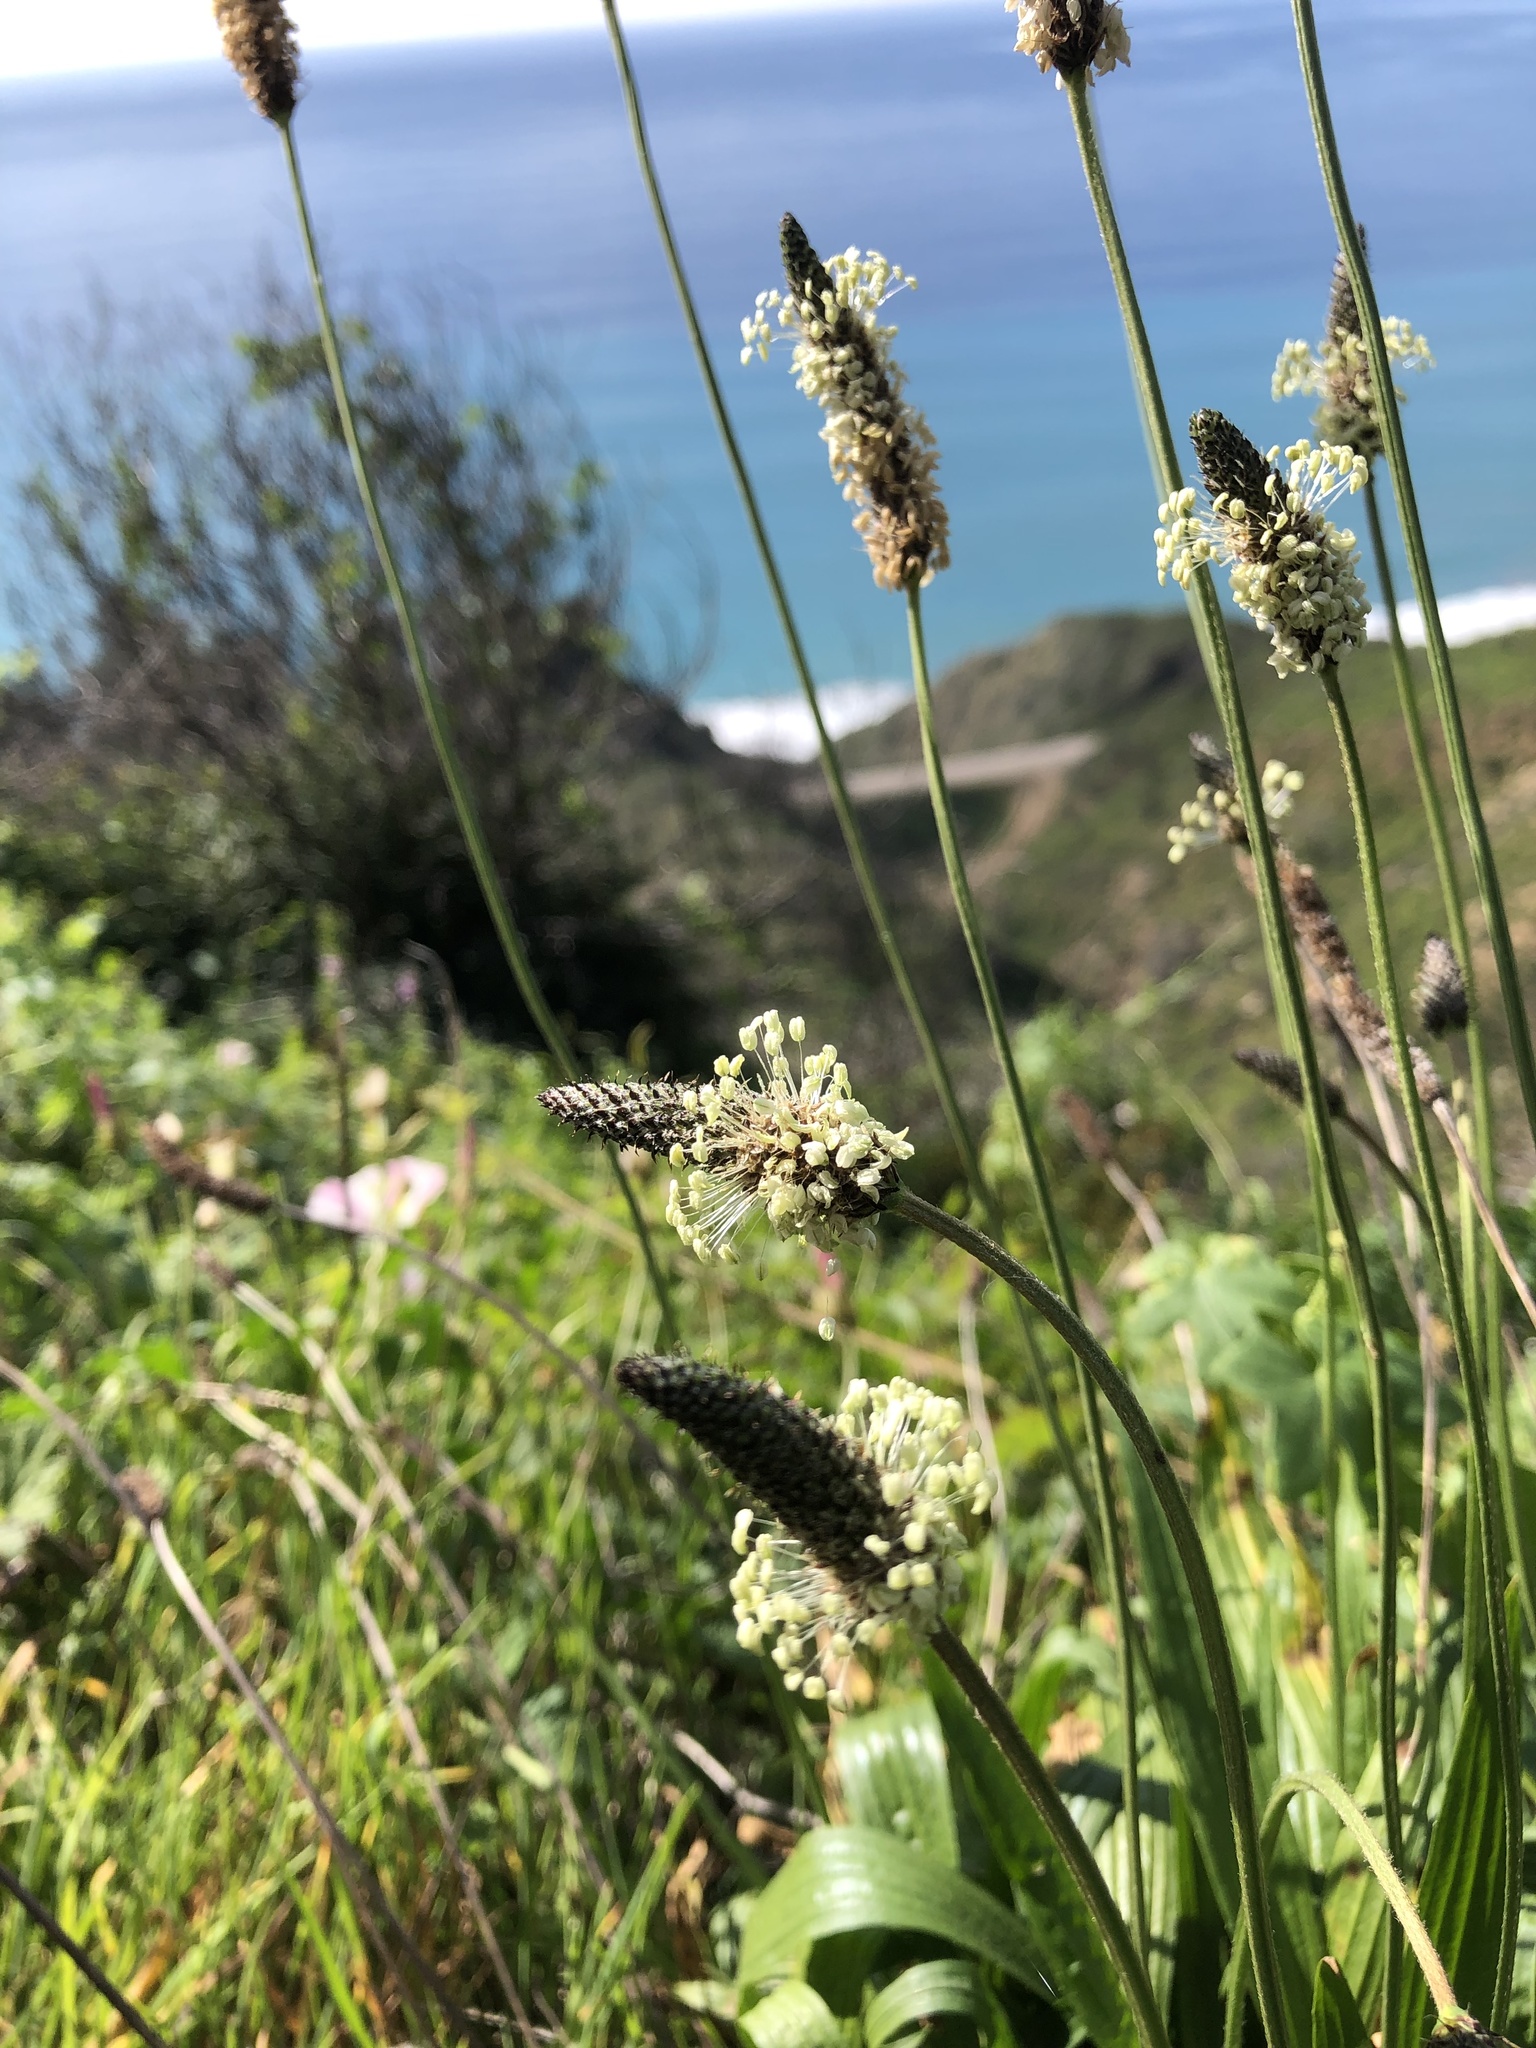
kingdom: Plantae
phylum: Tracheophyta
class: Magnoliopsida
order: Lamiales
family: Plantaginaceae
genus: Plantago
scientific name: Plantago lanceolata
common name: Ribwort plantain
